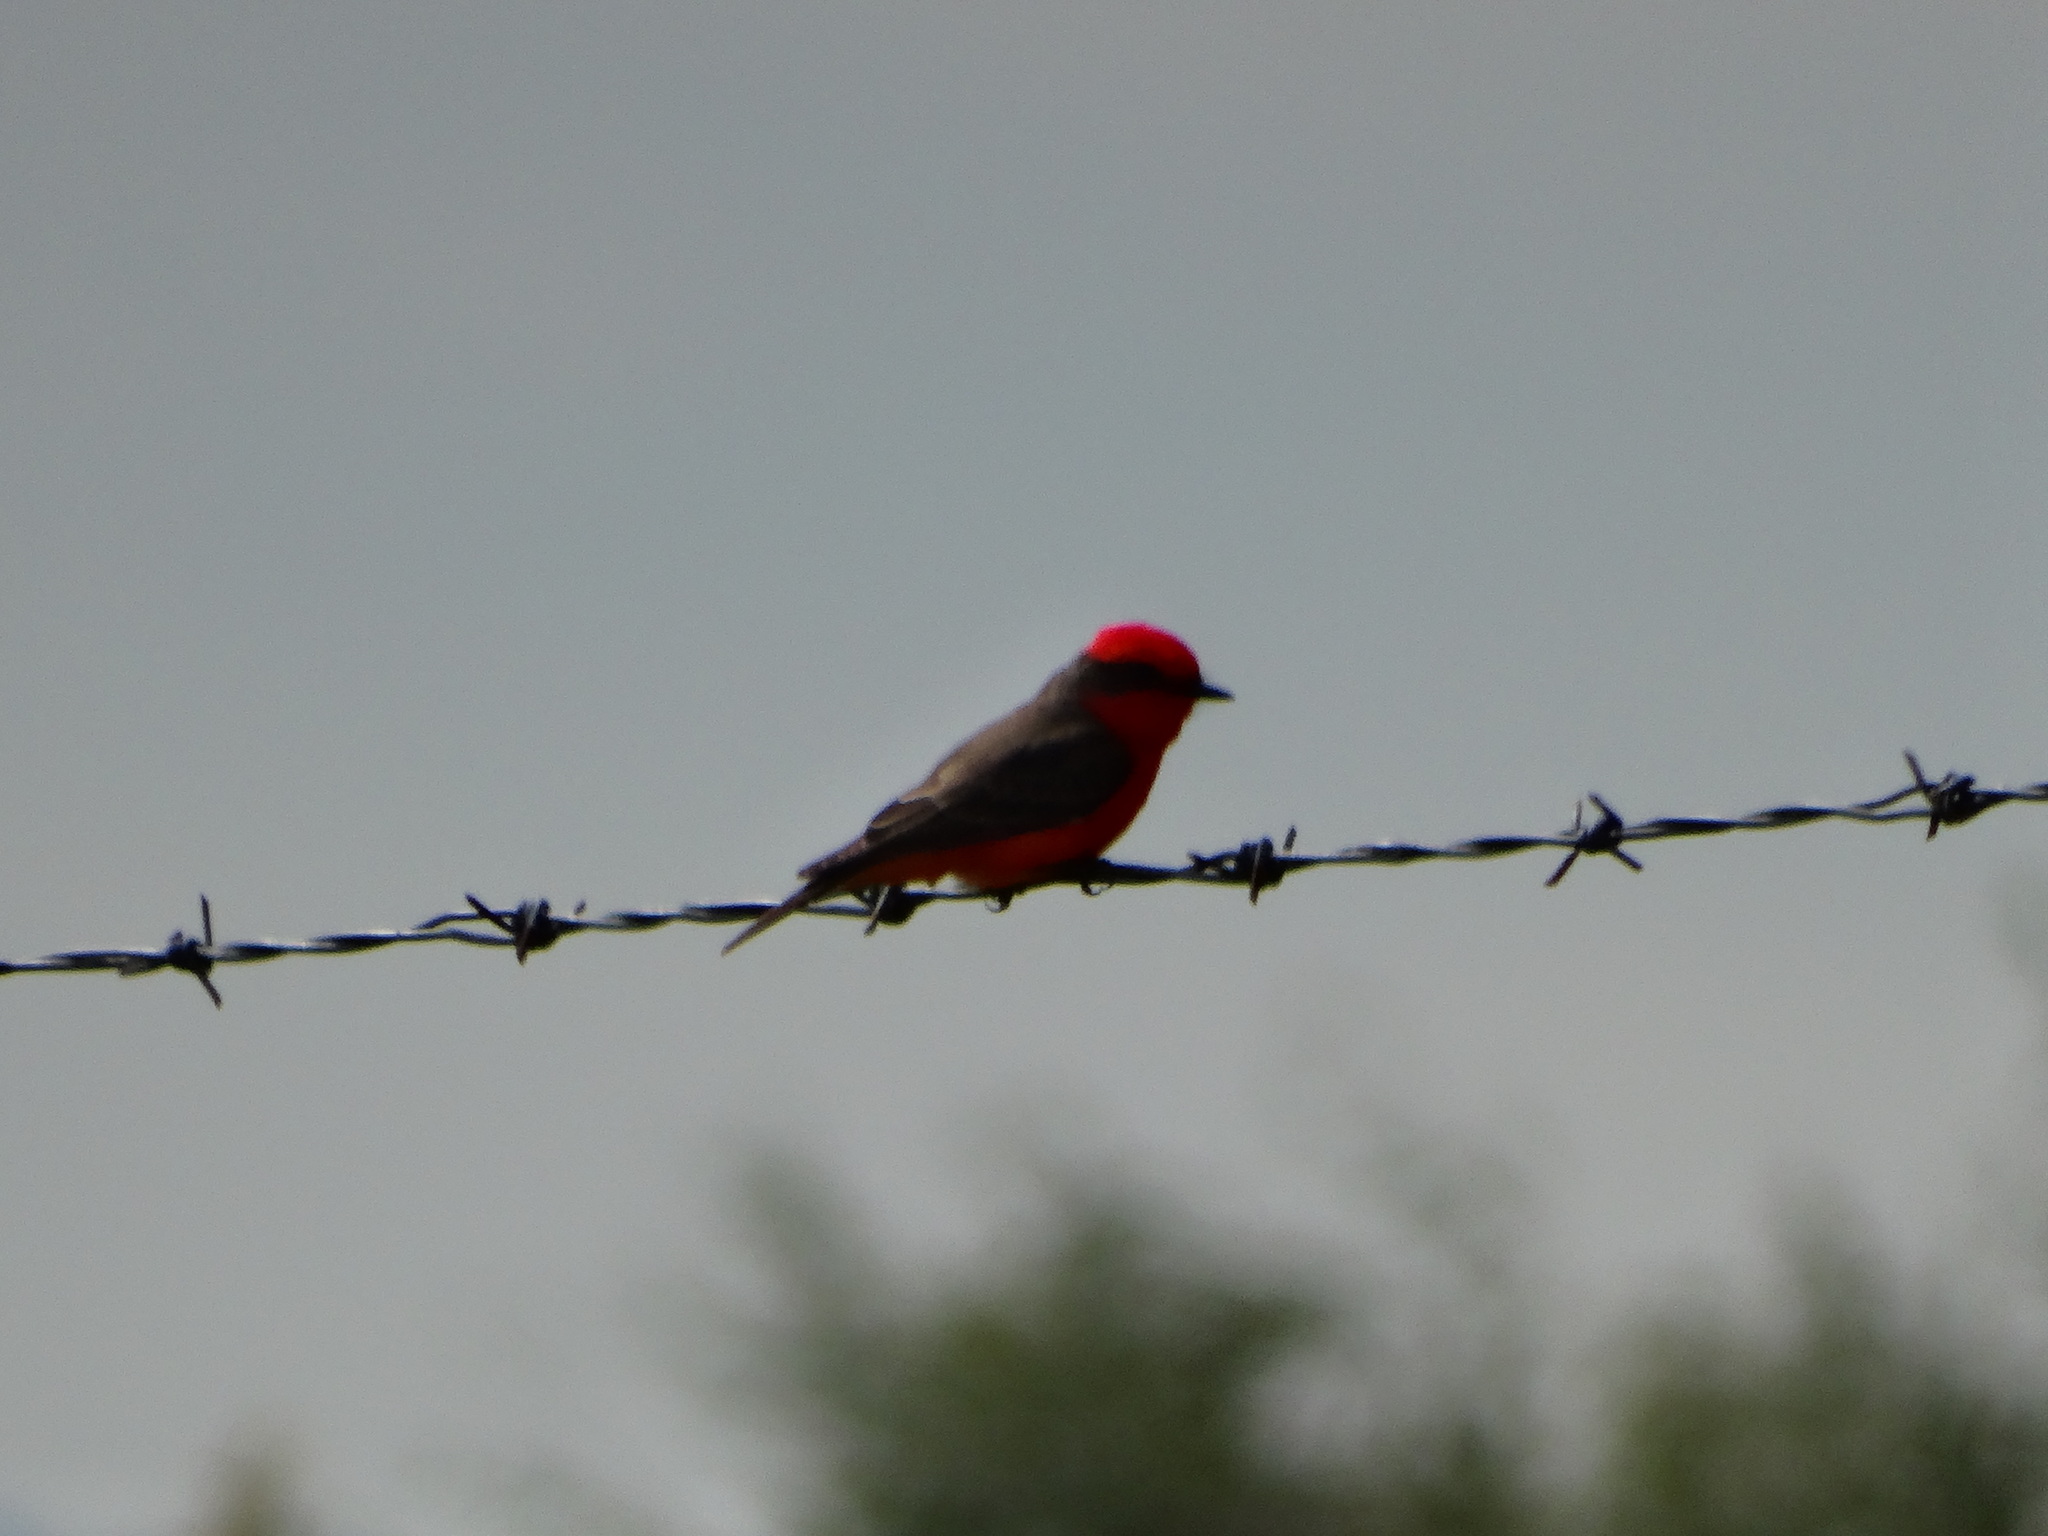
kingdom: Animalia
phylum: Chordata
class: Aves
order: Passeriformes
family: Tyrannidae
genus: Pyrocephalus
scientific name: Pyrocephalus rubinus
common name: Vermilion flycatcher
